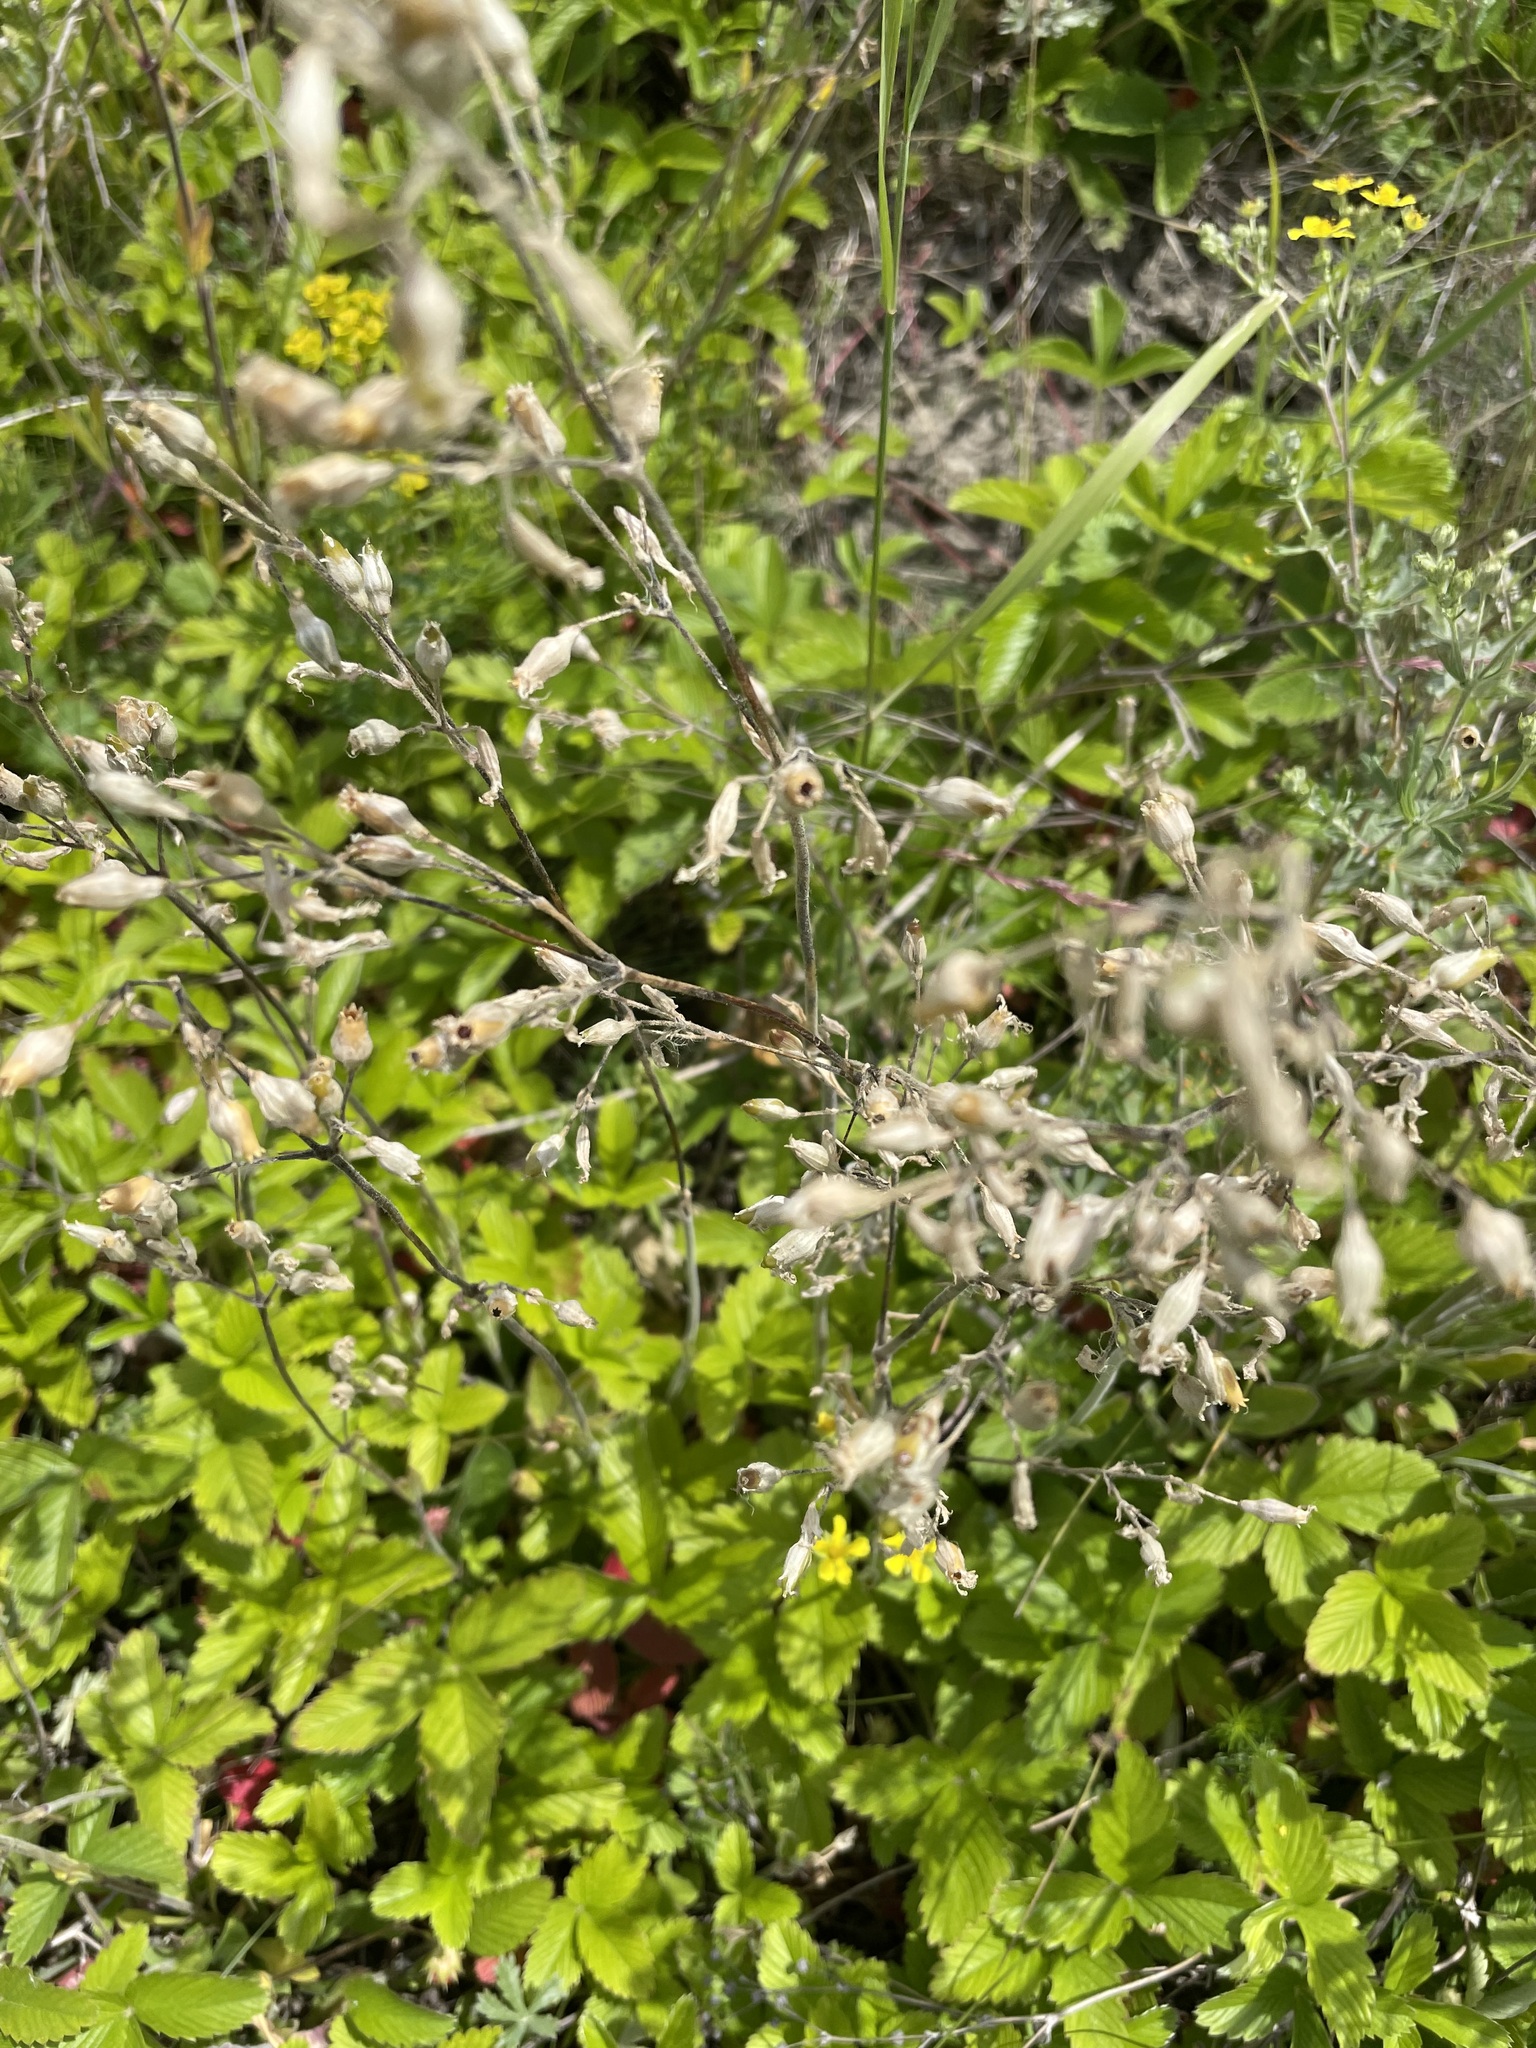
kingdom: Plantae
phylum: Tracheophyta
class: Magnoliopsida
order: Fabales
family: Fabaceae
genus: Chamaecytisus
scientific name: Chamaecytisus ruthenicus
